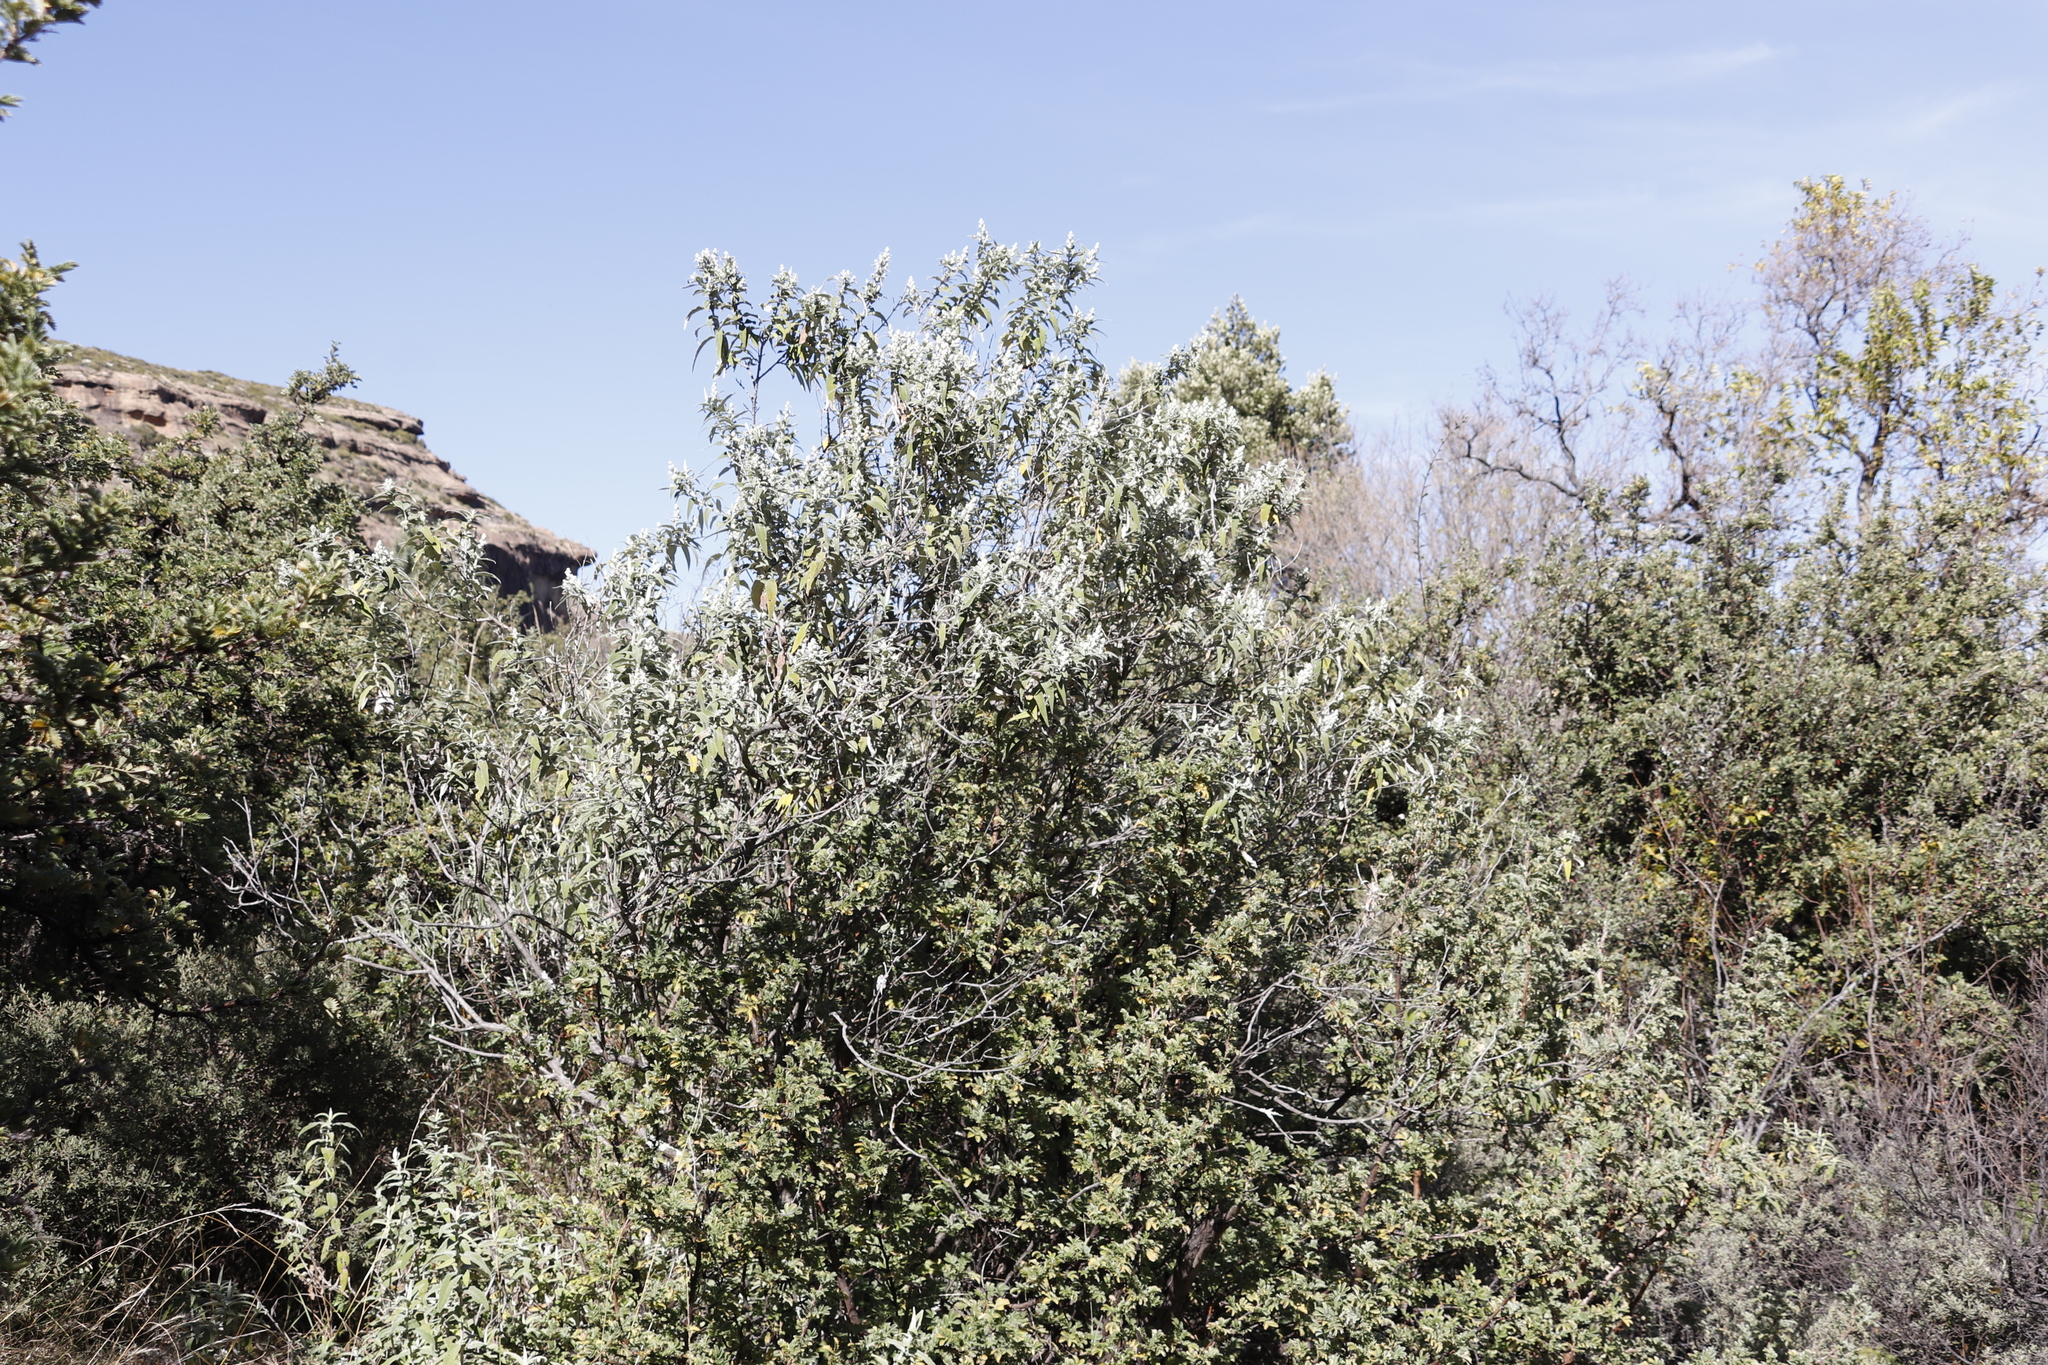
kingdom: Plantae
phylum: Tracheophyta
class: Magnoliopsida
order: Lamiales
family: Scrophulariaceae
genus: Buddleja
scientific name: Buddleja salviifolia
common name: Sagewood
